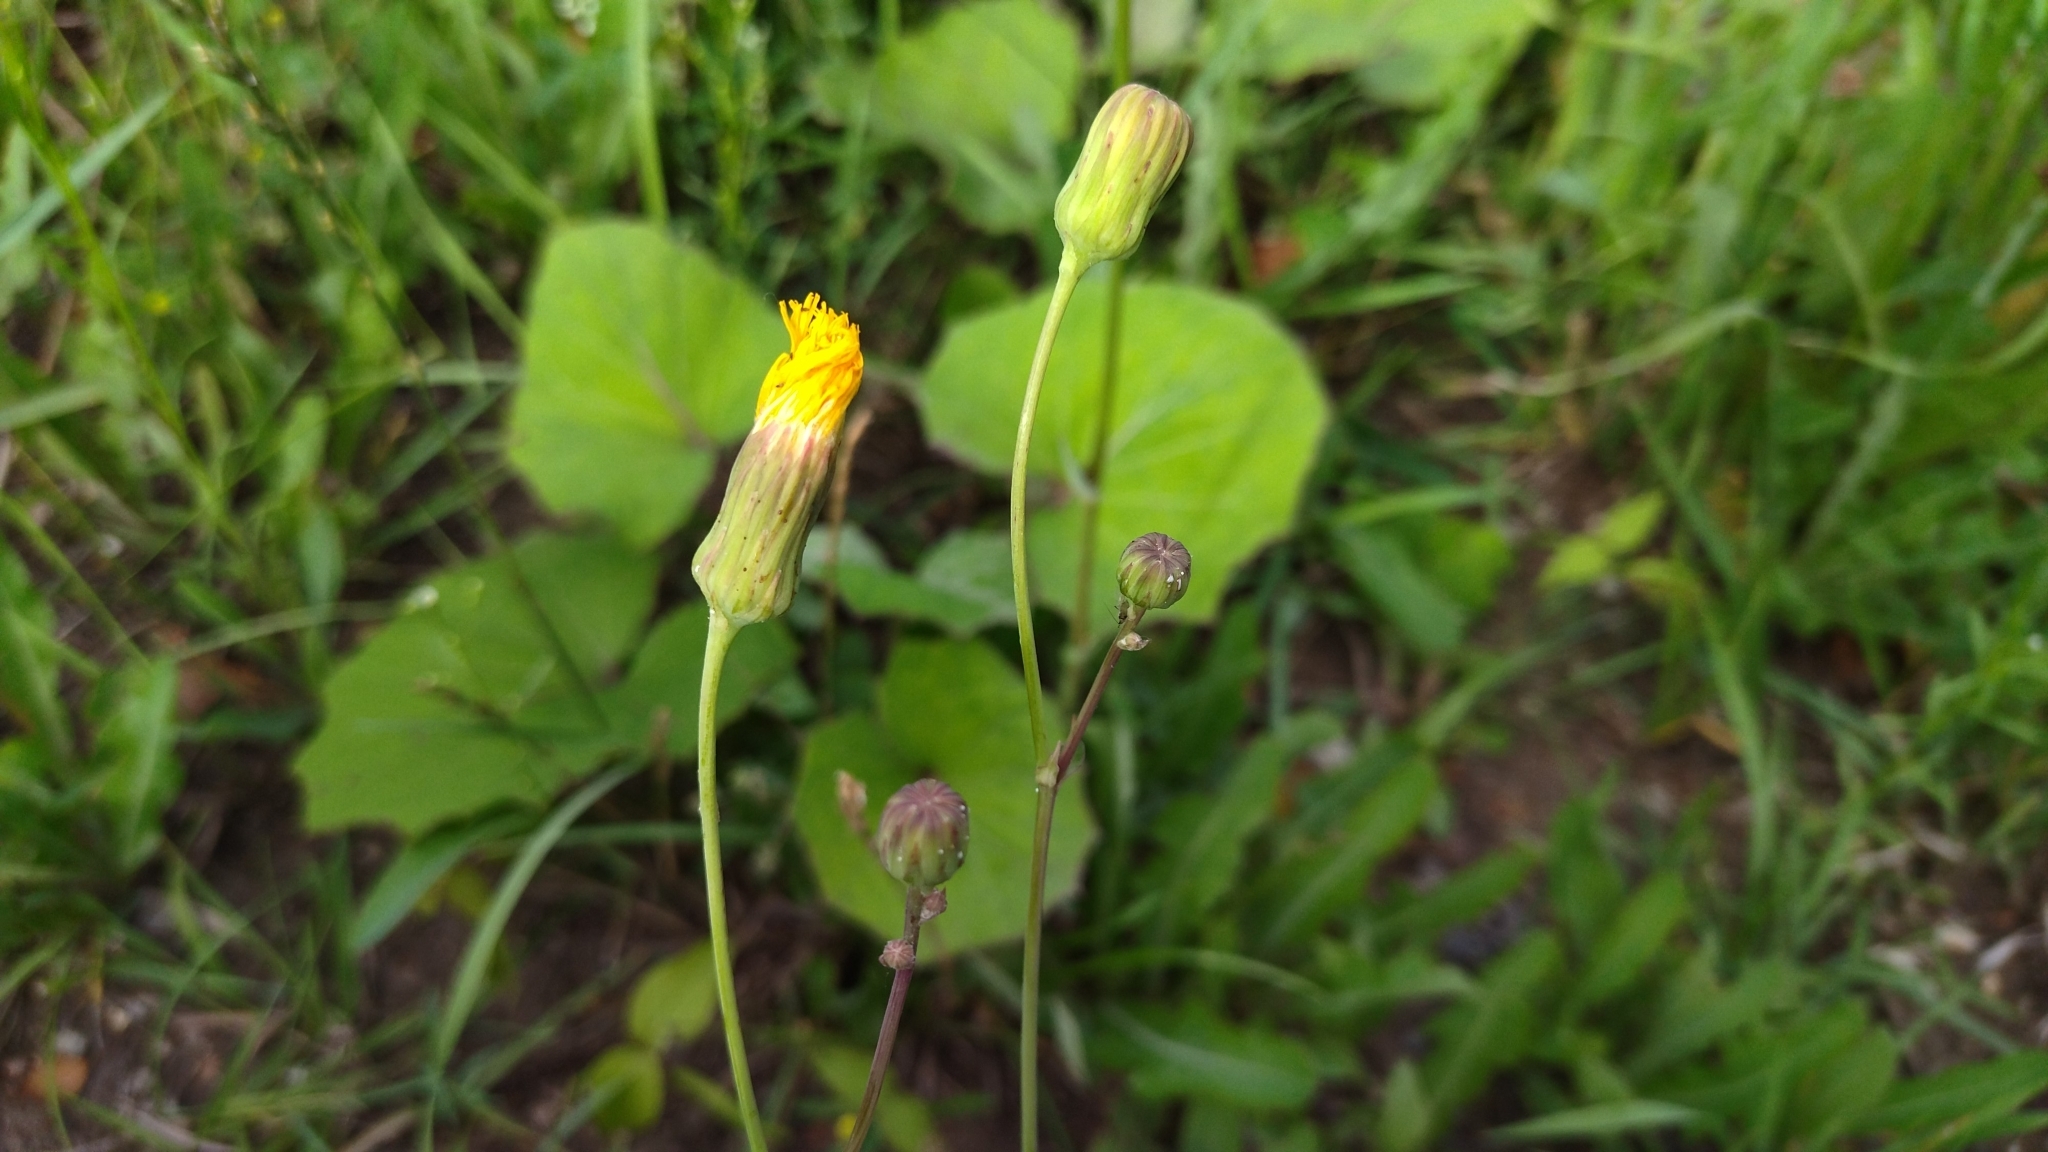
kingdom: Plantae
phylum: Tracheophyta
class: Magnoliopsida
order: Asterales
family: Asteraceae
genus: Sonchus
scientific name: Sonchus arvensis
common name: Perennial sow-thistle
